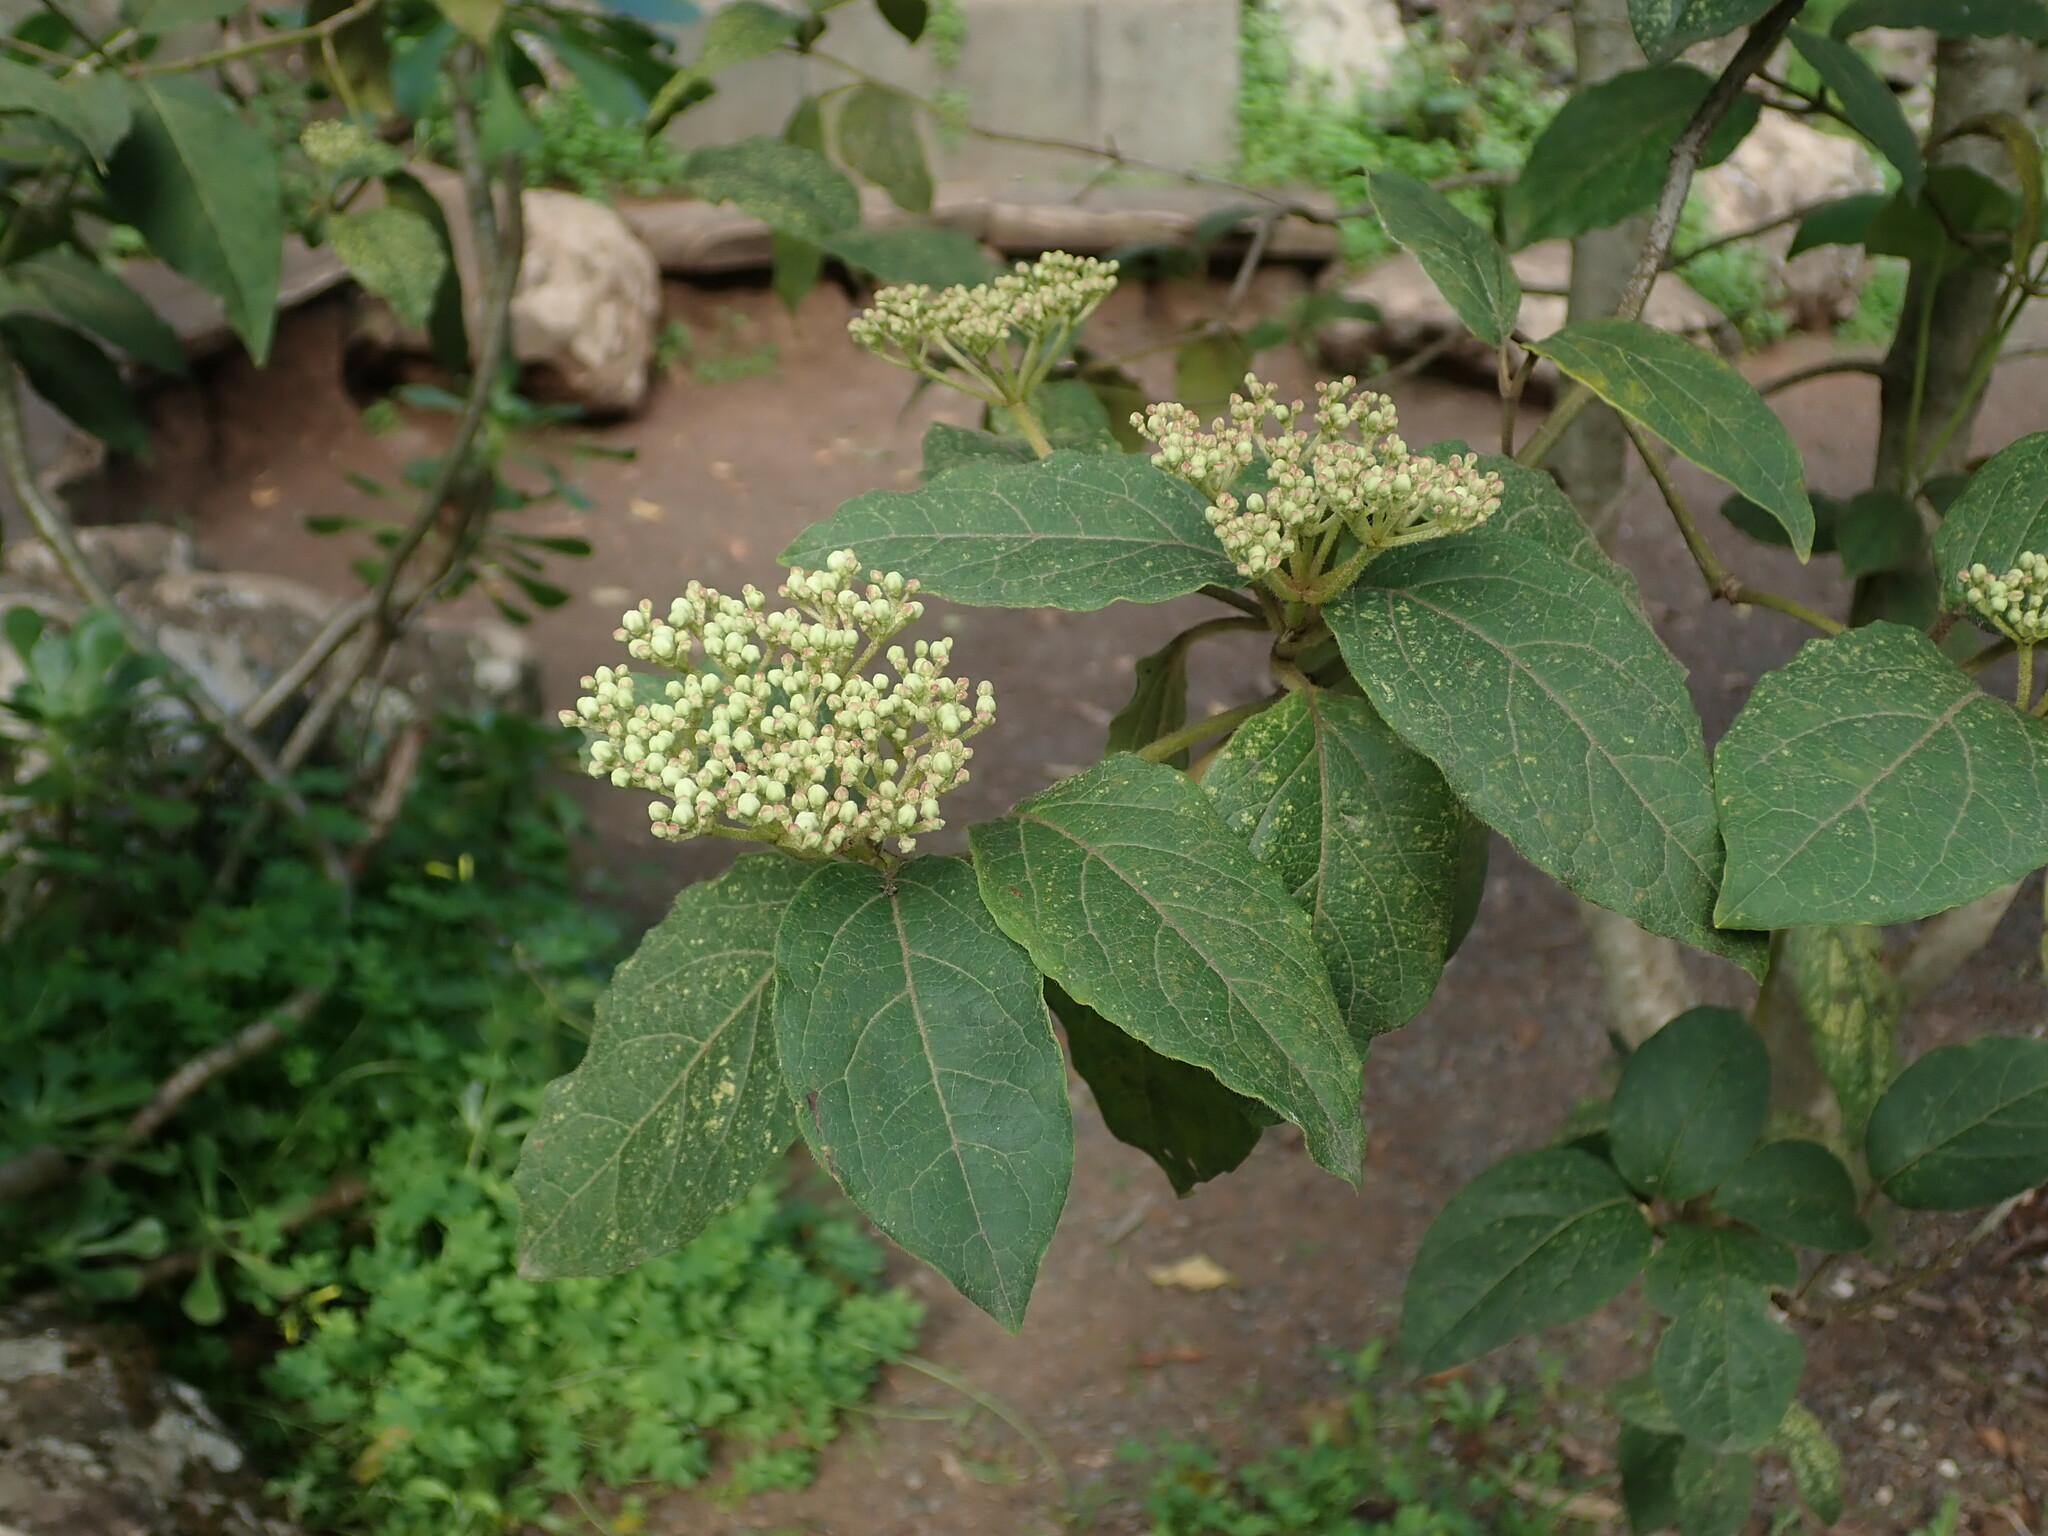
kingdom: Plantae
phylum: Tracheophyta
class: Magnoliopsida
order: Dipsacales
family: Viburnaceae
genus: Viburnum
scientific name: Viburnum rugosum
